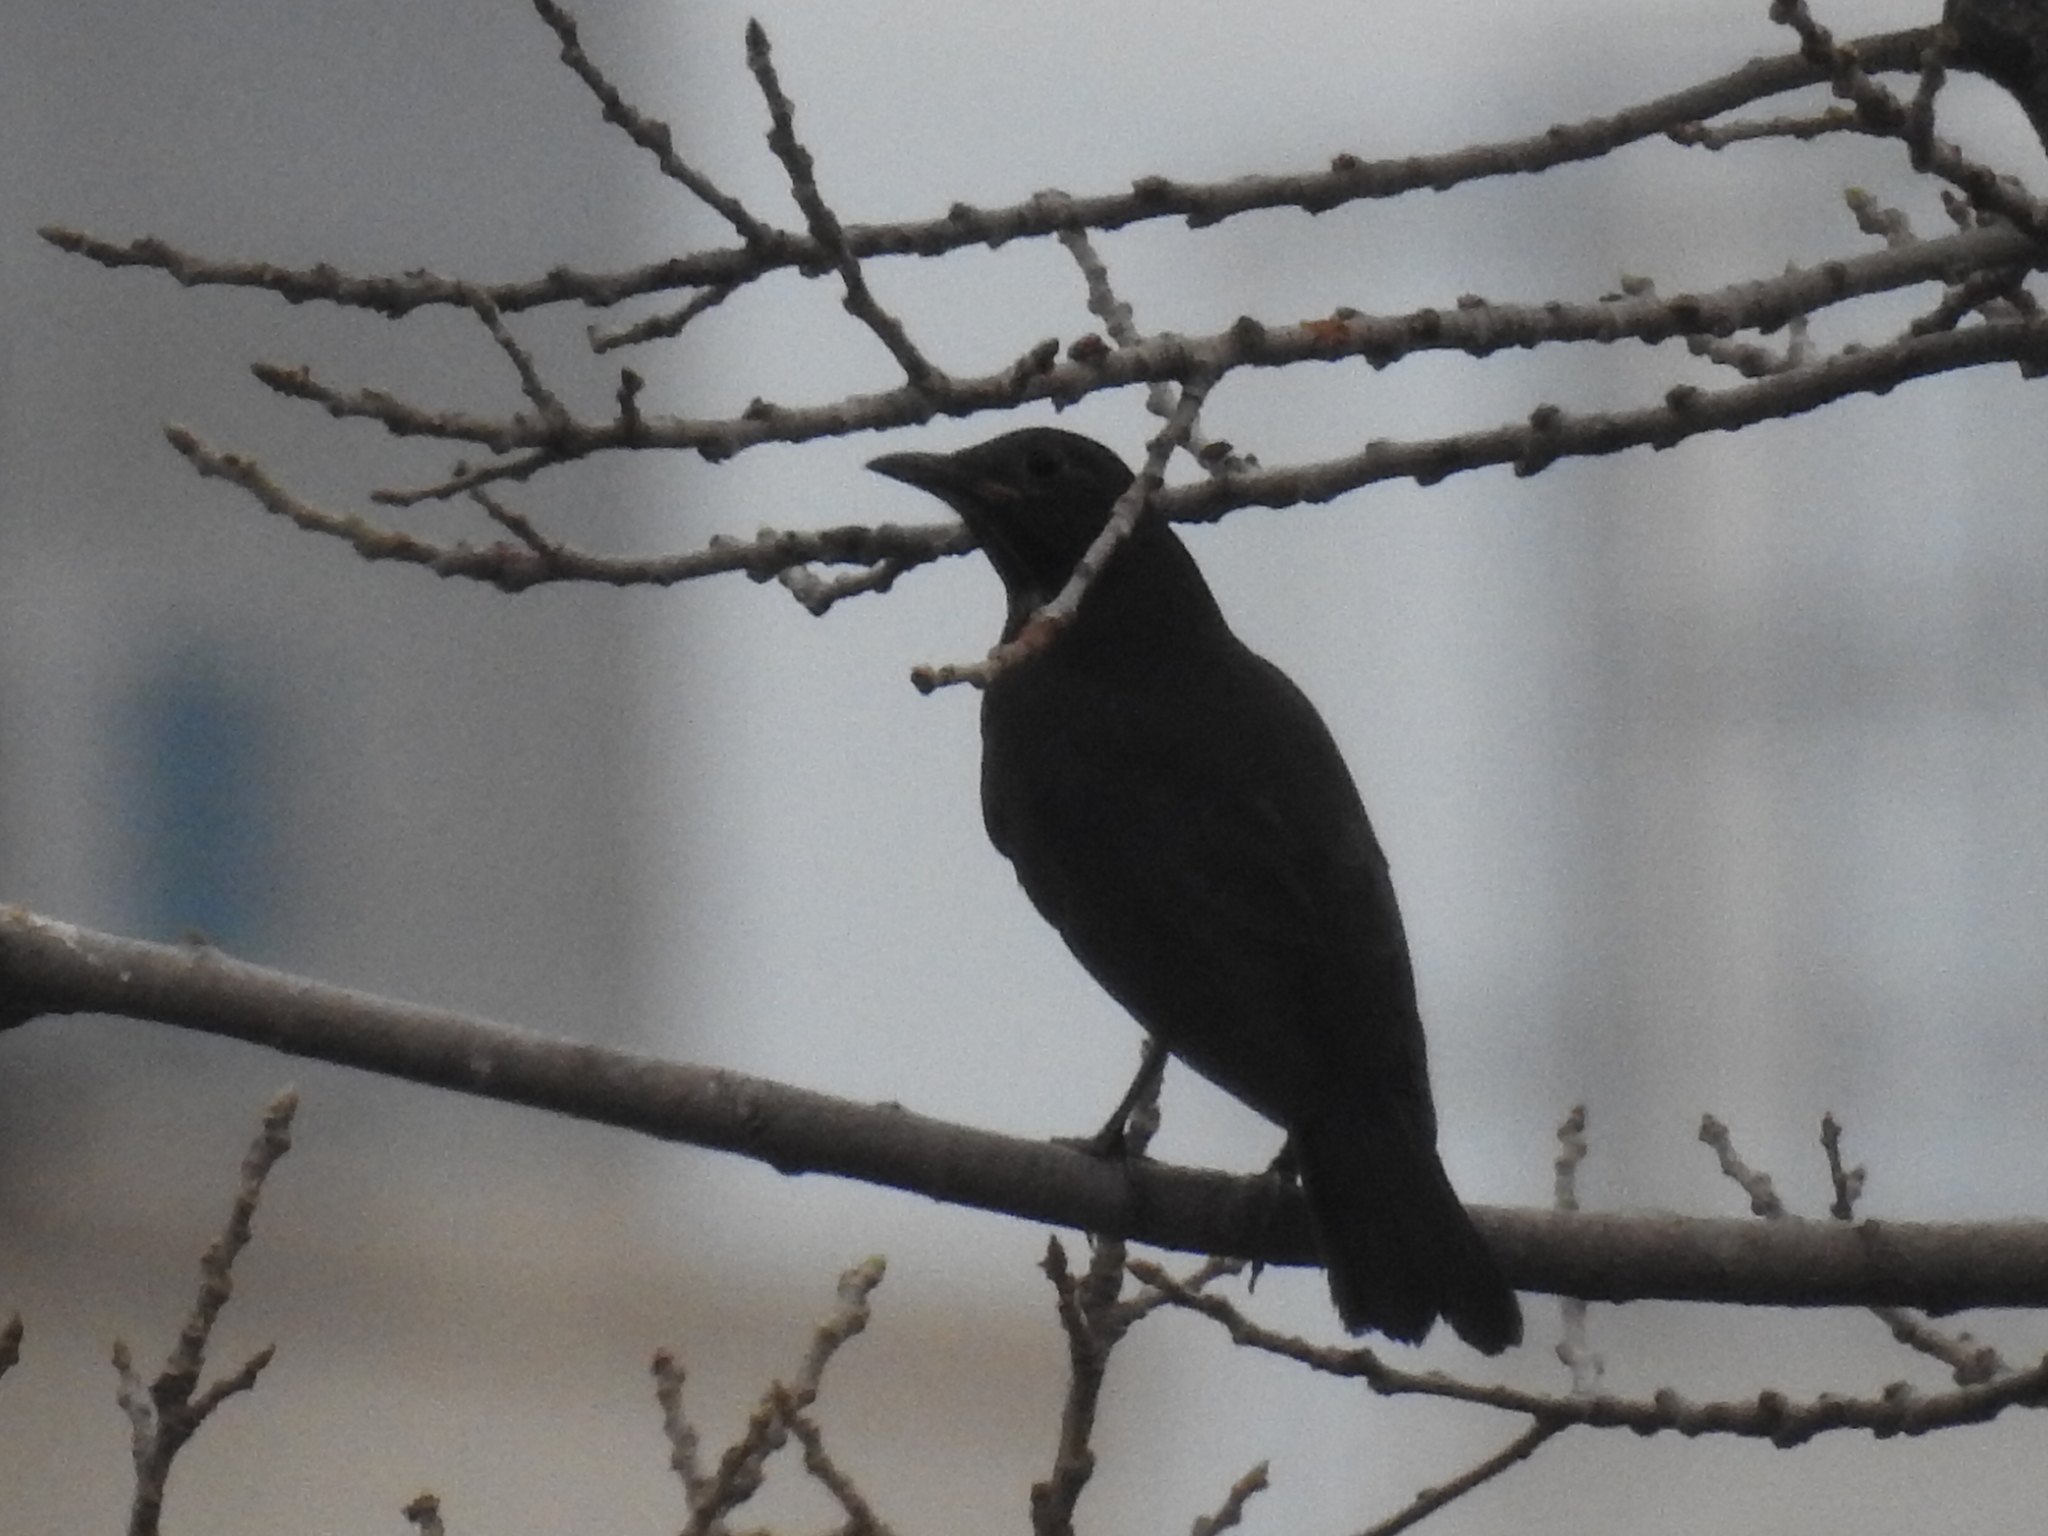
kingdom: Animalia
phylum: Chordata
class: Aves
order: Passeriformes
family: Turdidae
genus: Turdus
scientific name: Turdus mandarinus
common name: Chinese blackbird
